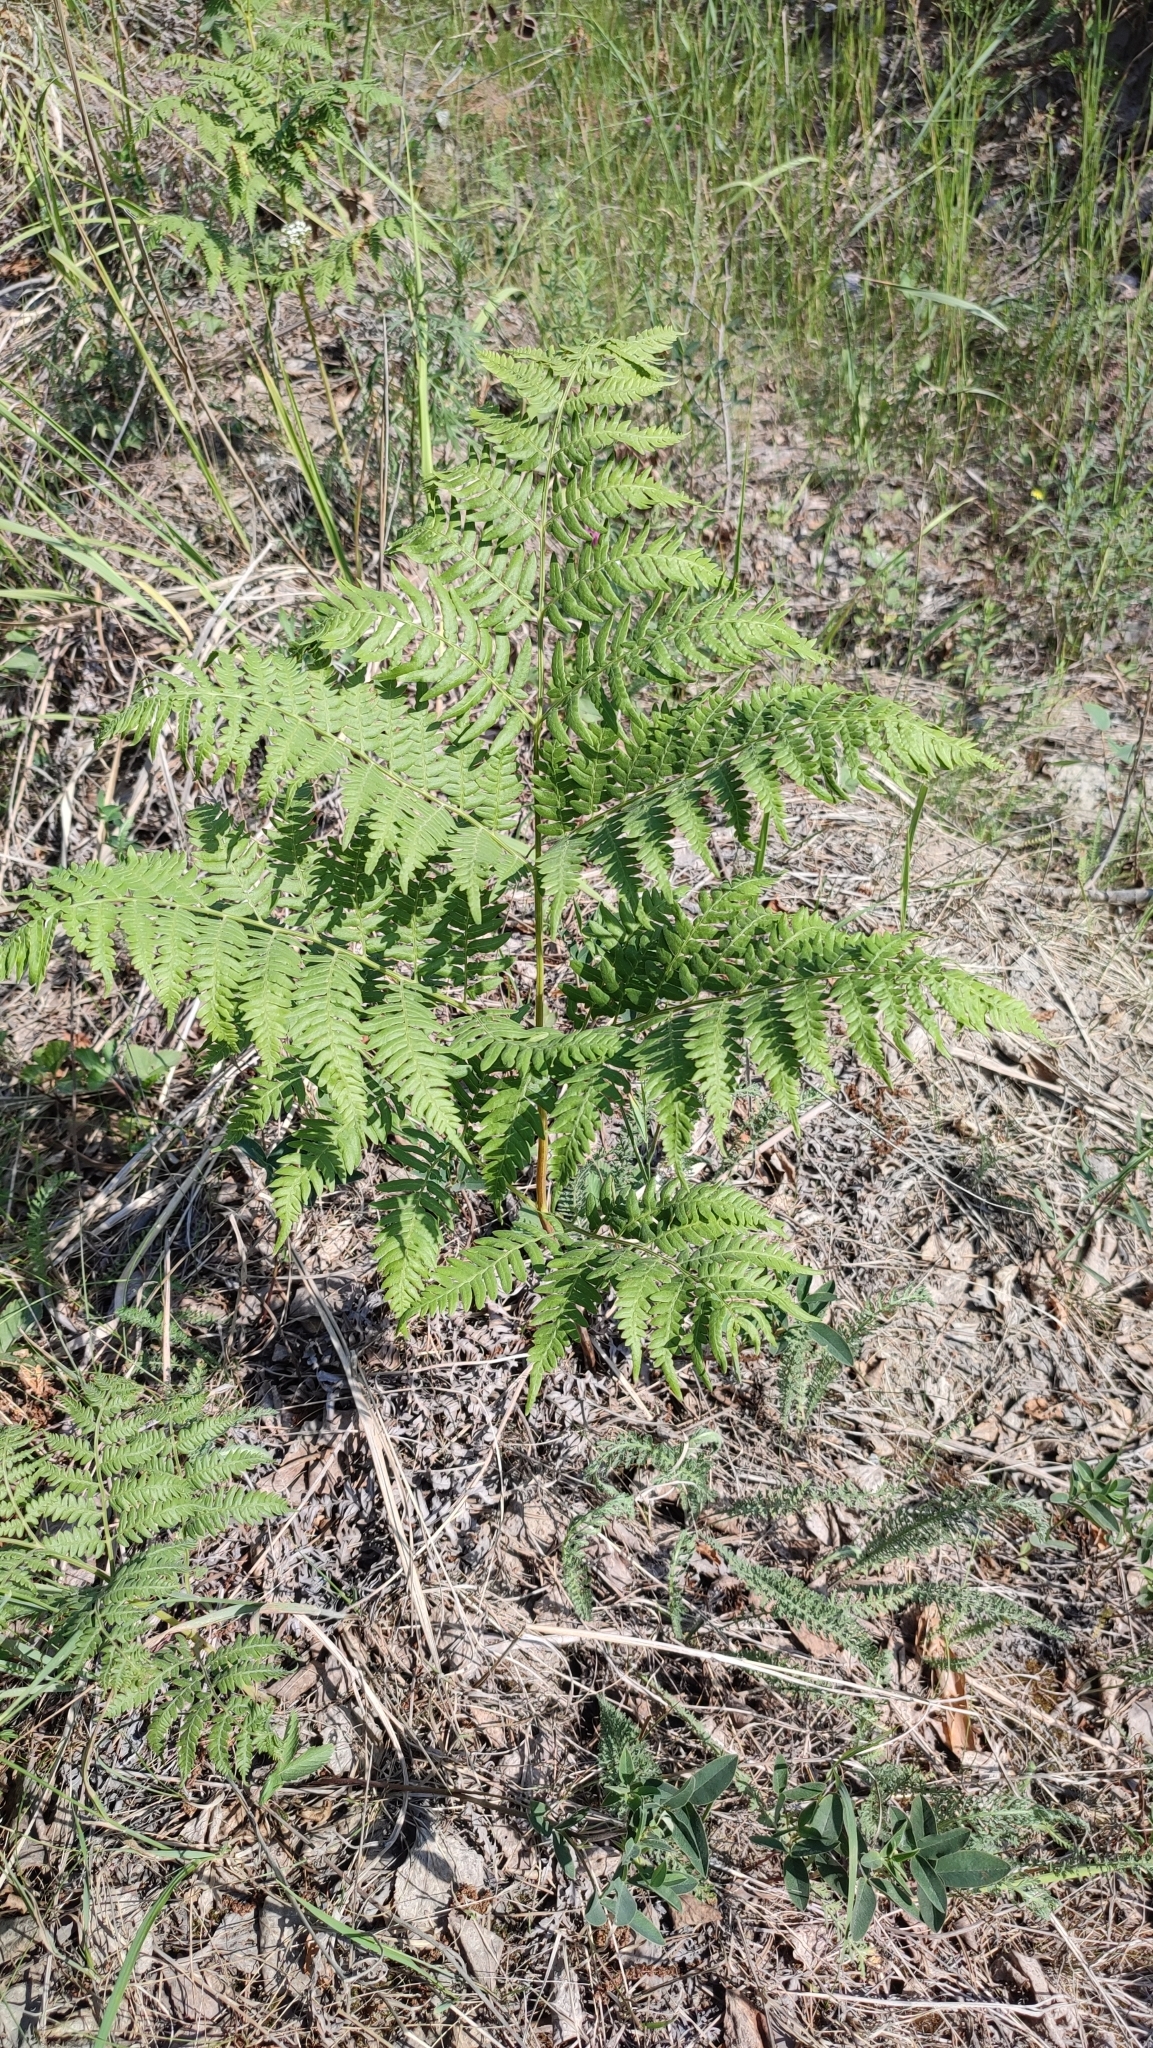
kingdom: Plantae
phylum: Tracheophyta
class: Polypodiopsida
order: Polypodiales
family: Dennstaedtiaceae
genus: Pteridium
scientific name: Pteridium aquilinum
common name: Bracken
